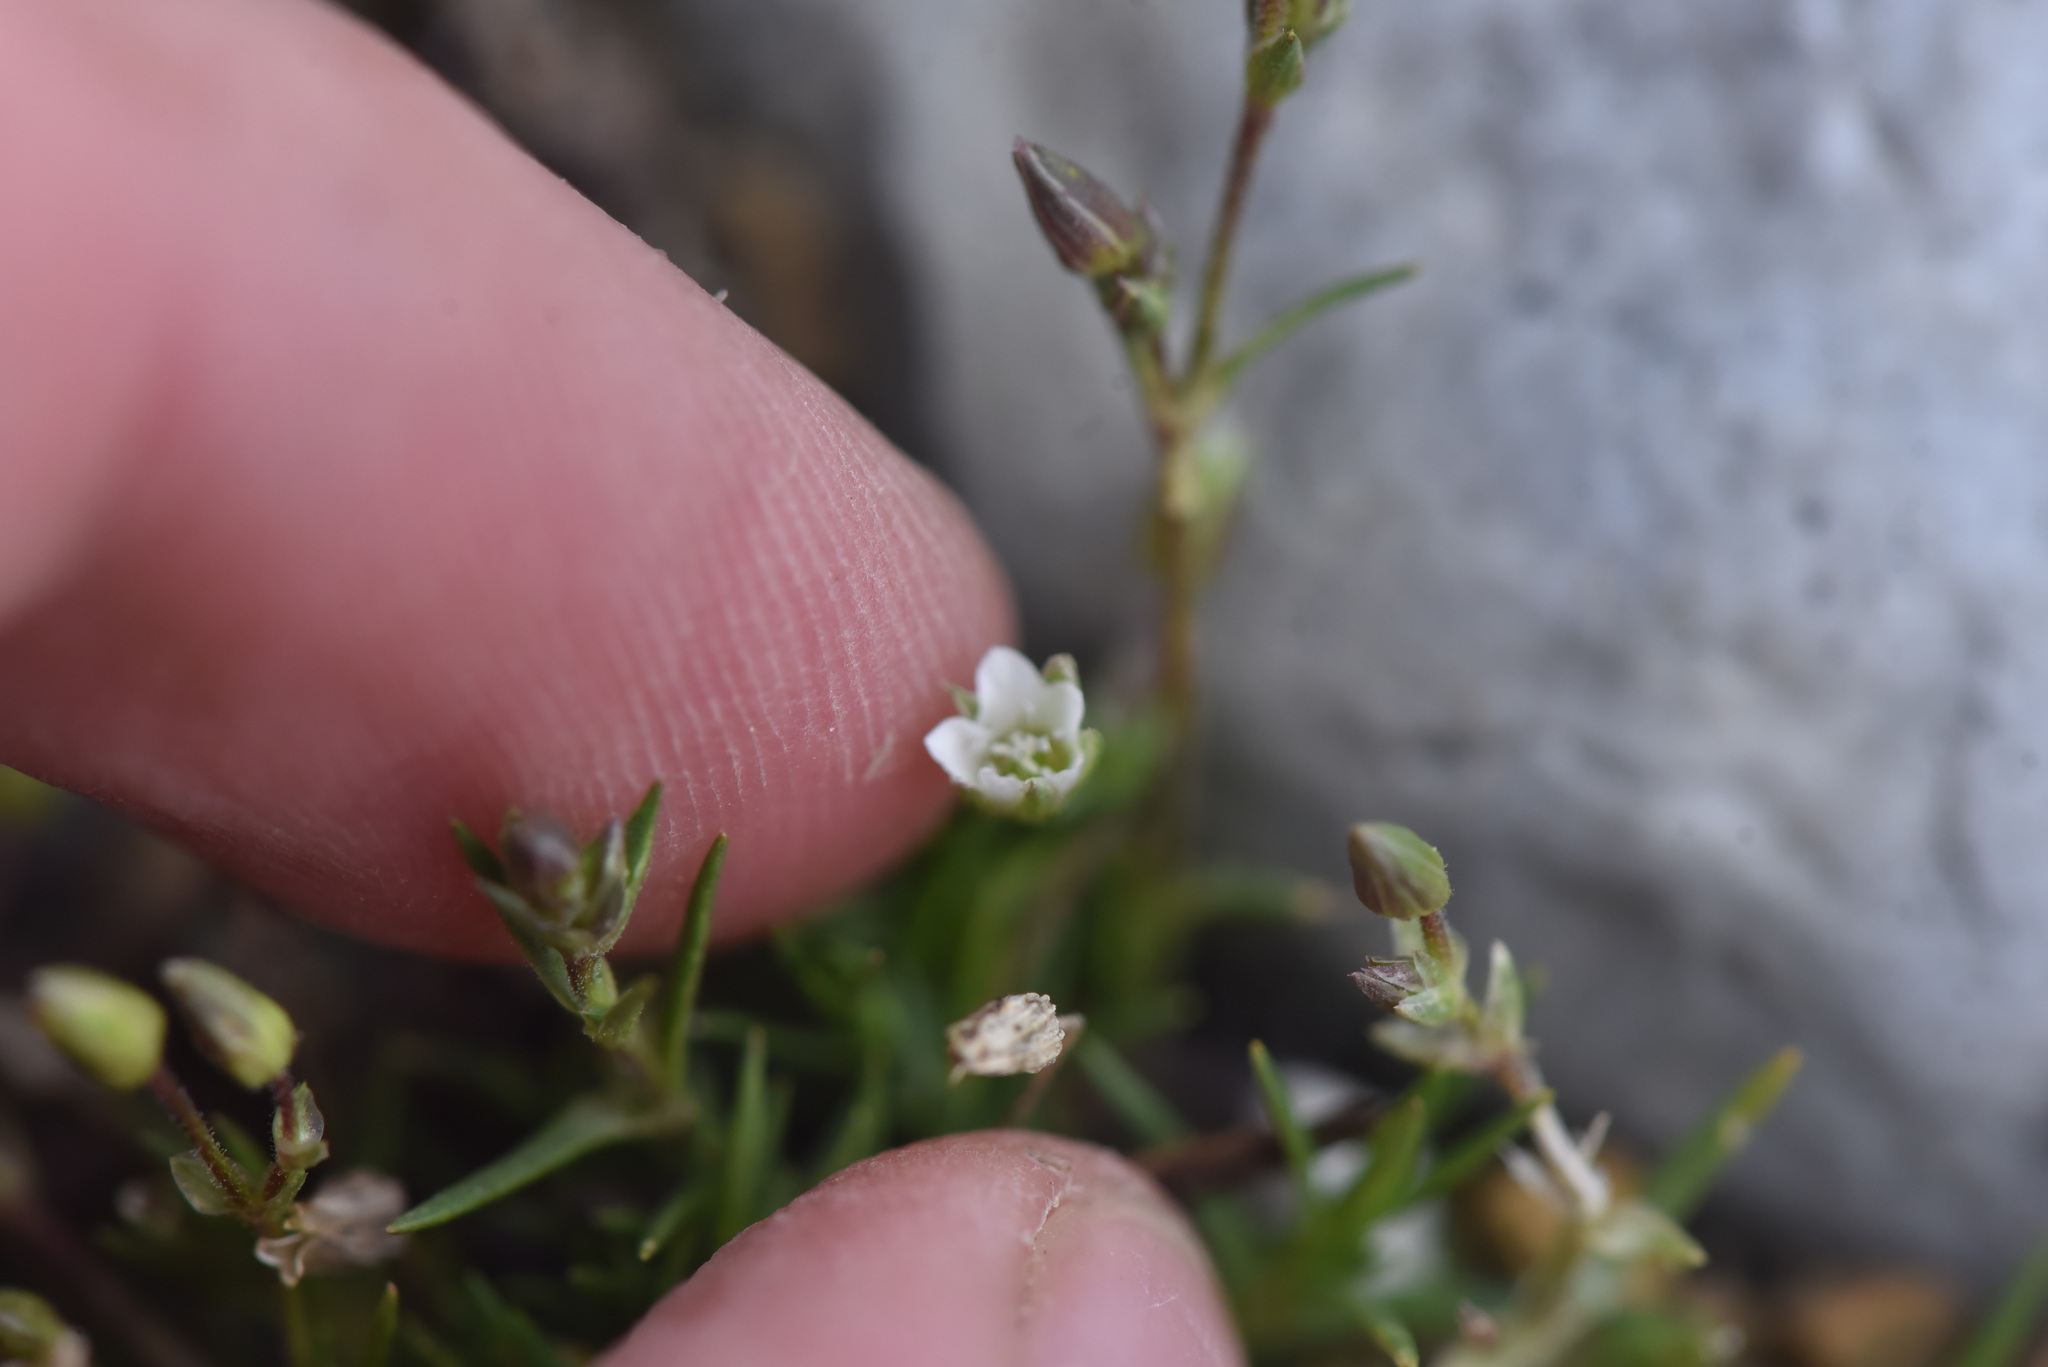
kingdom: Plantae
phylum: Tracheophyta
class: Magnoliopsida
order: Caryophyllales
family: Caryophyllaceae
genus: Sabulina
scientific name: Sabulina rubella
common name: Beautiful sandwort
